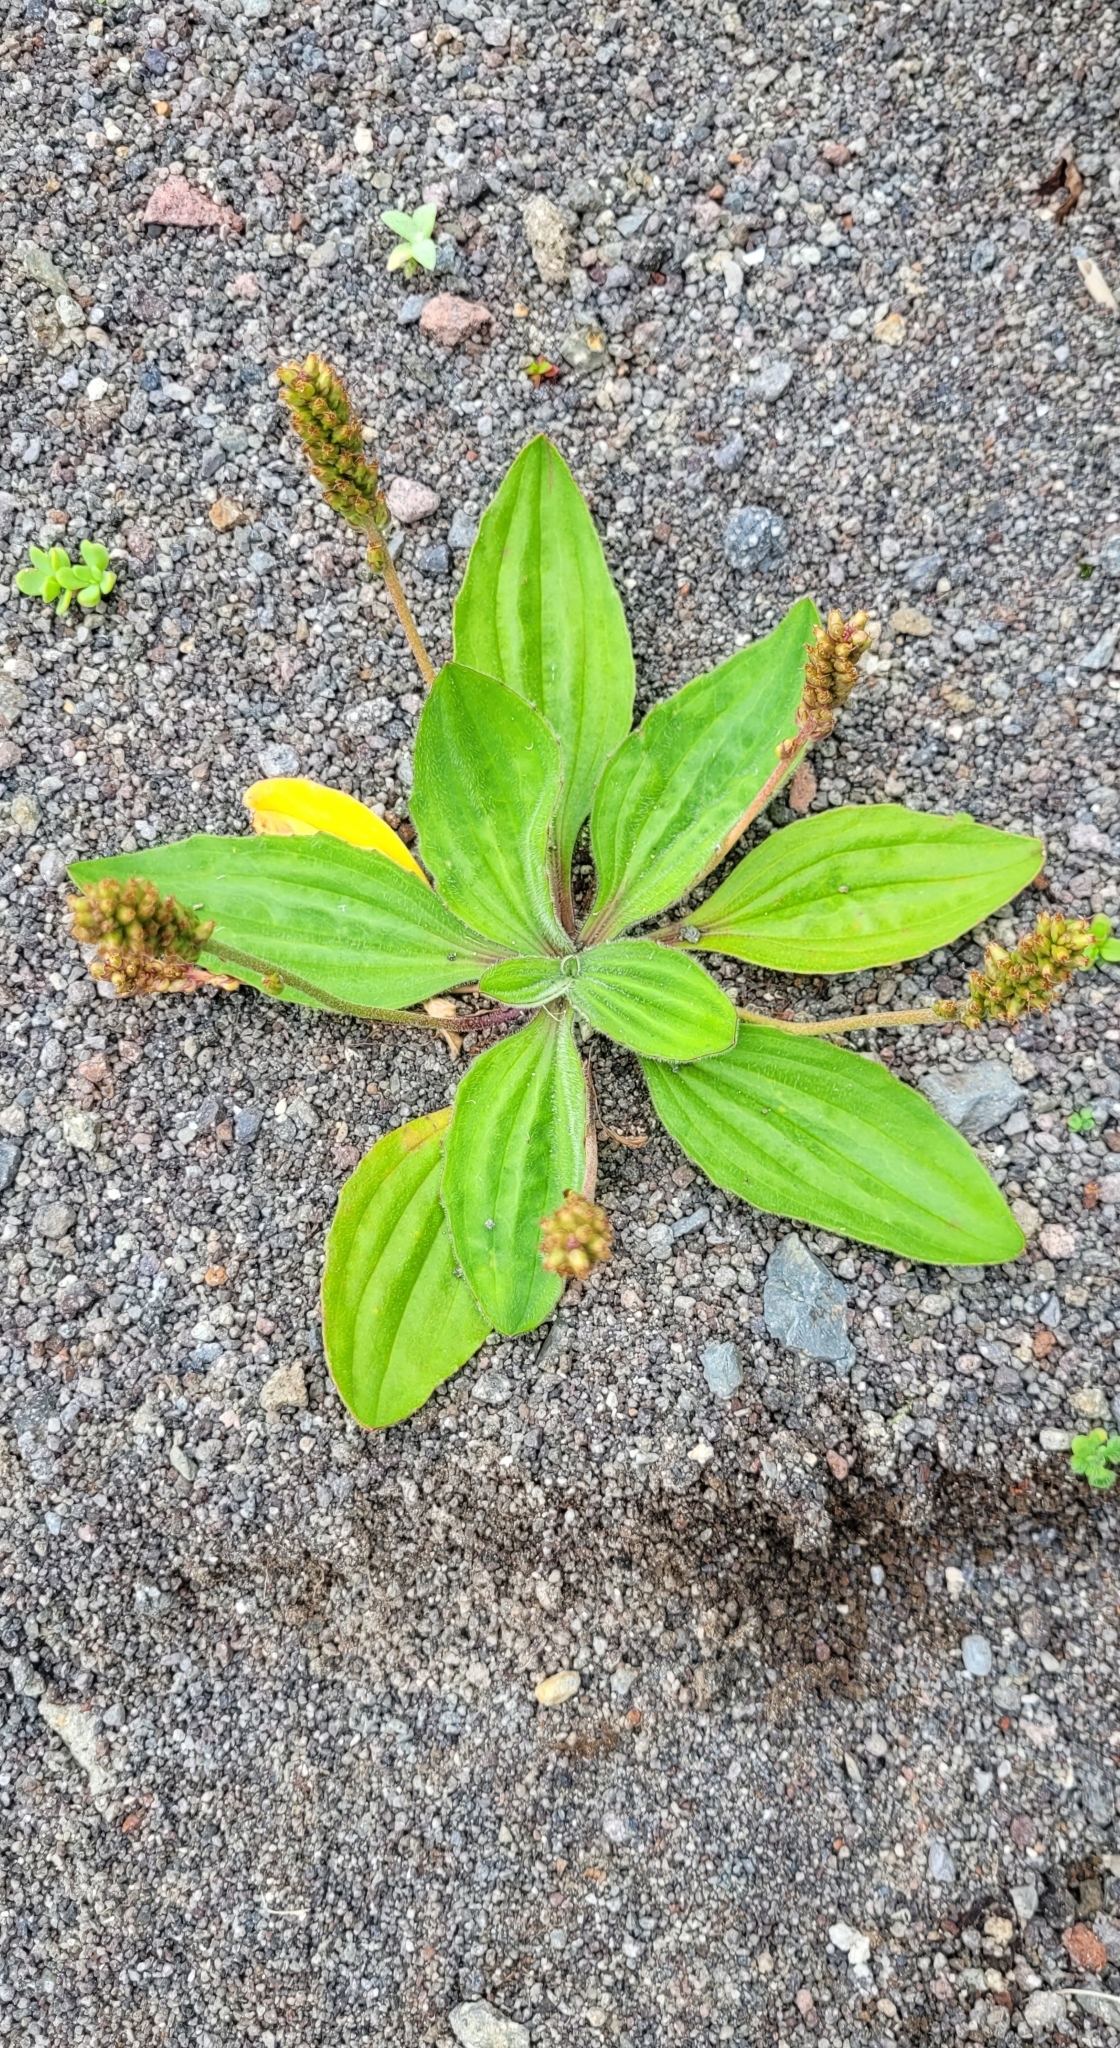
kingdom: Plantae
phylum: Tracheophyta
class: Magnoliopsida
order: Lamiales
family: Plantaginaceae
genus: Plantago
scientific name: Plantago camtschatica
